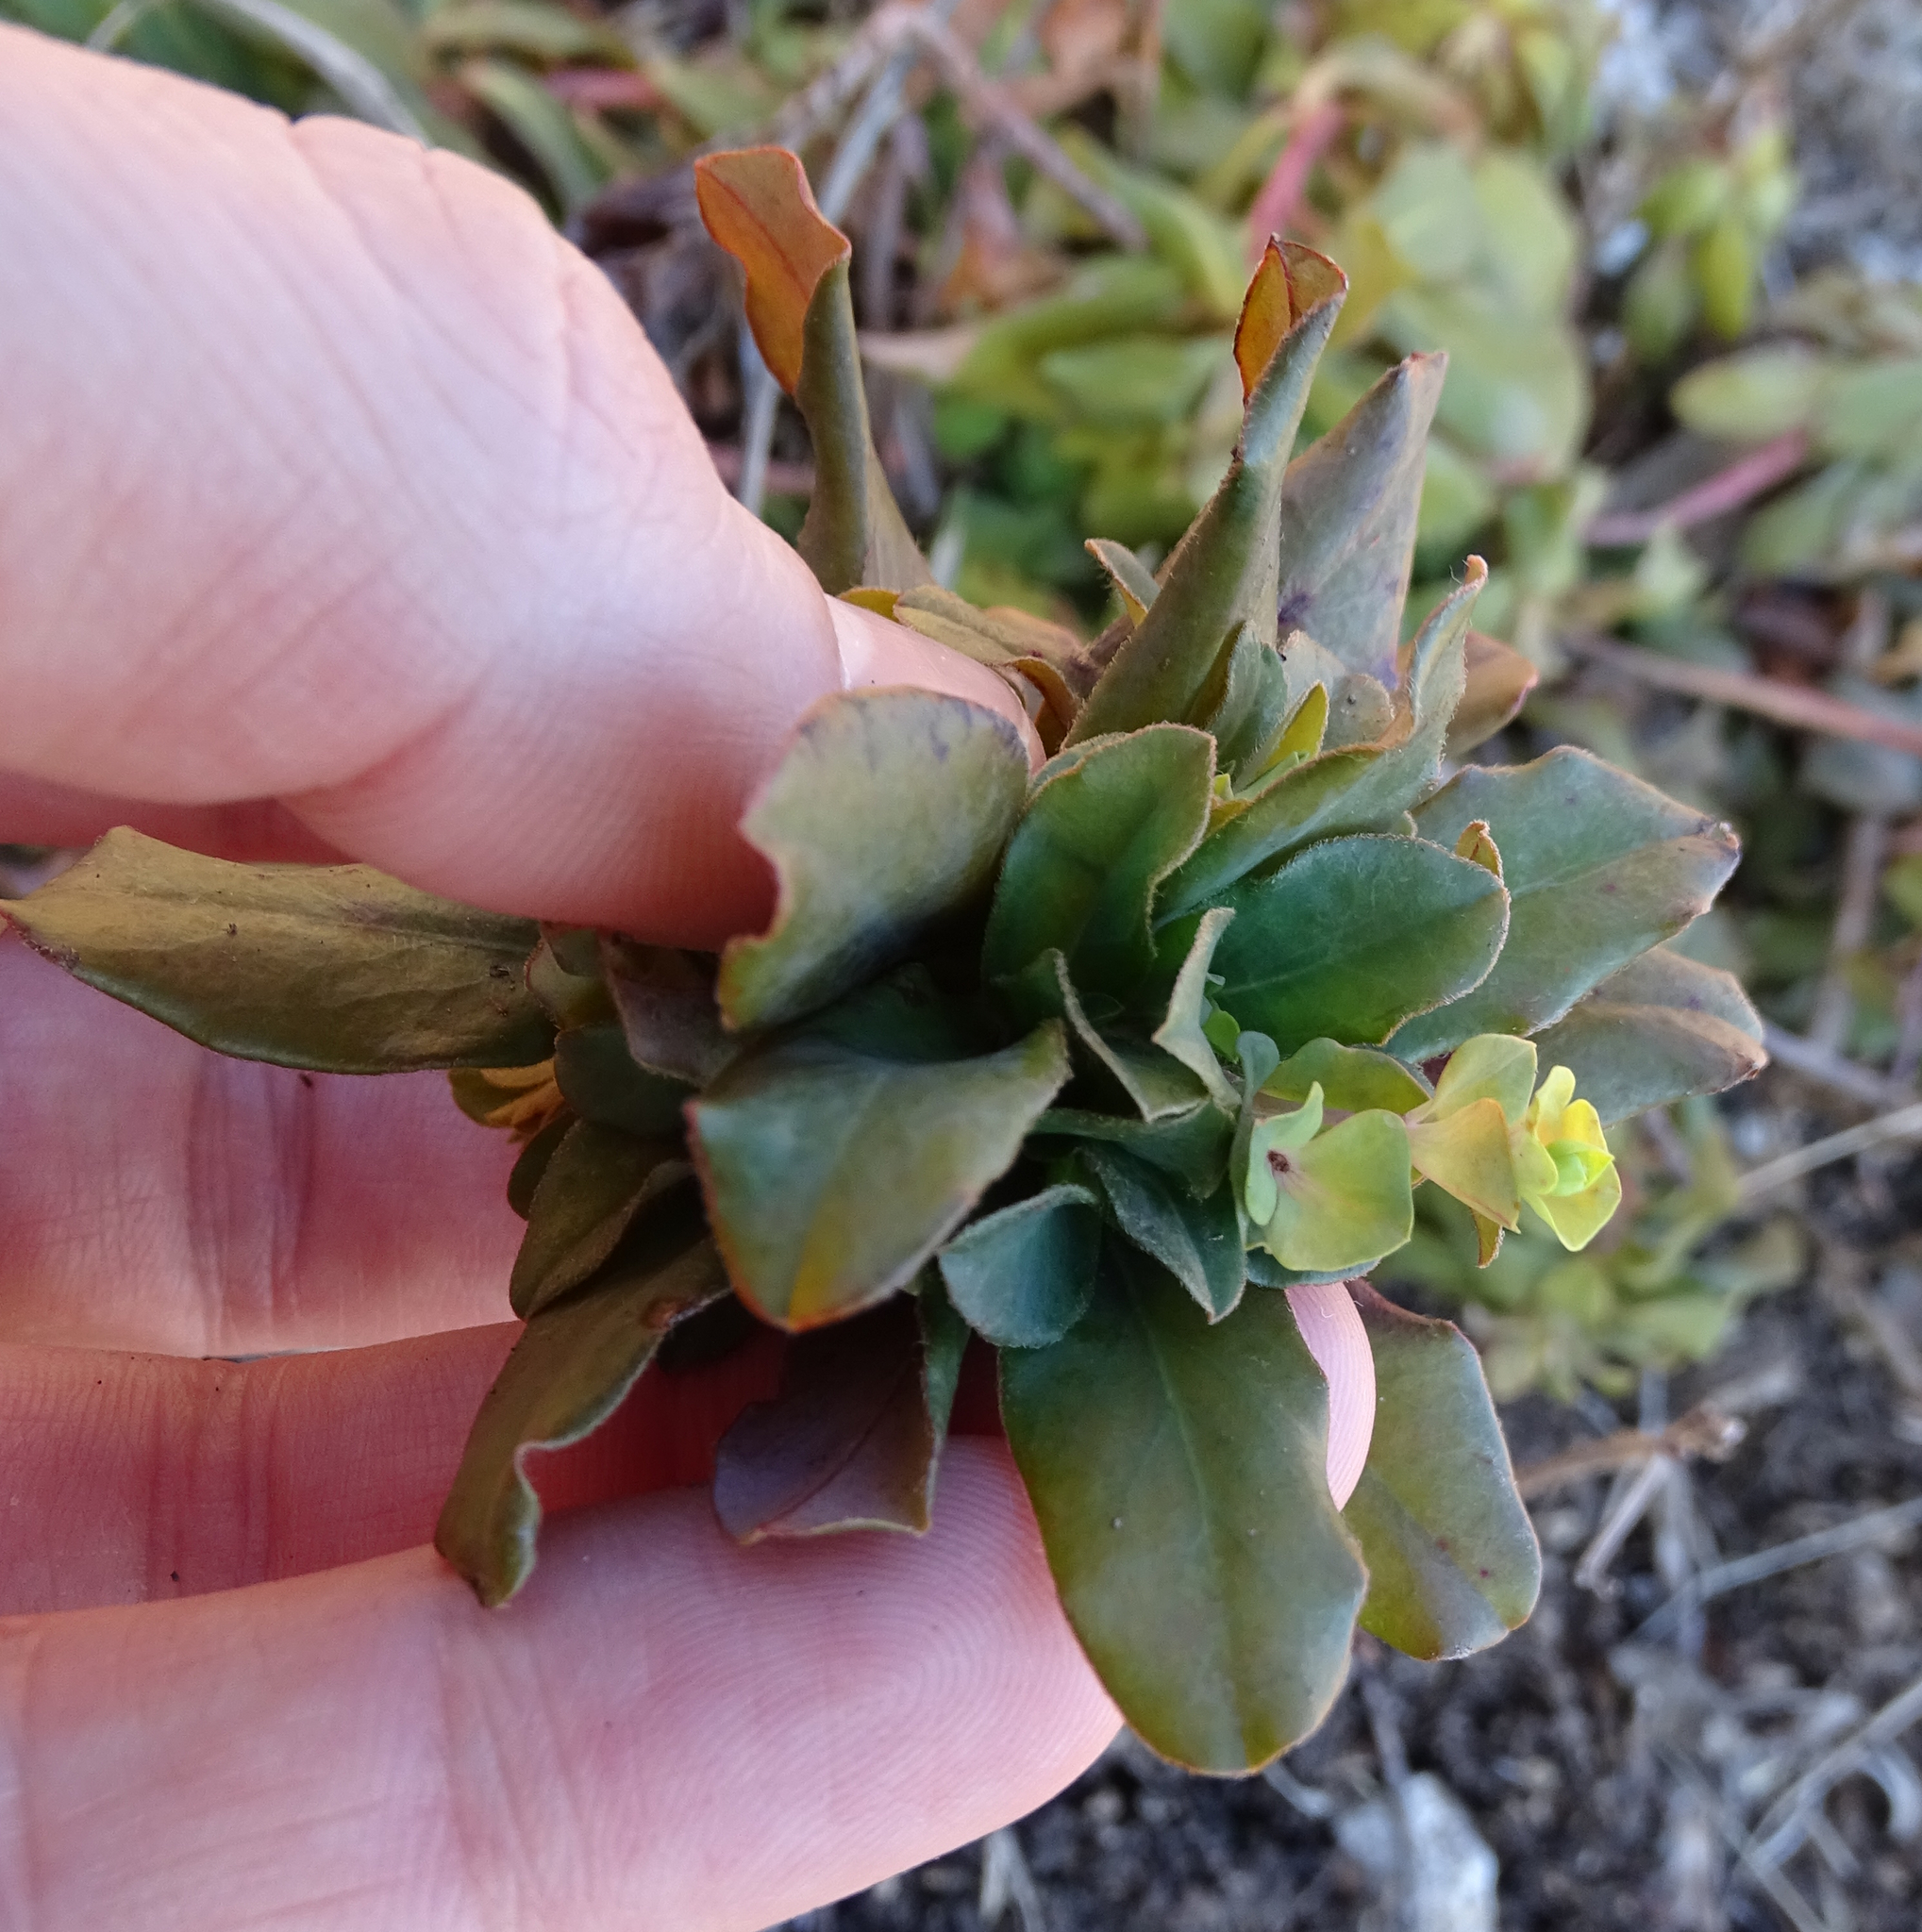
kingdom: Plantae
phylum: Tracheophyta
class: Magnoliopsida
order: Malpighiales
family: Euphorbiaceae
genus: Euphorbia
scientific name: Euphorbia amygdaloides
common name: Wood spurge
